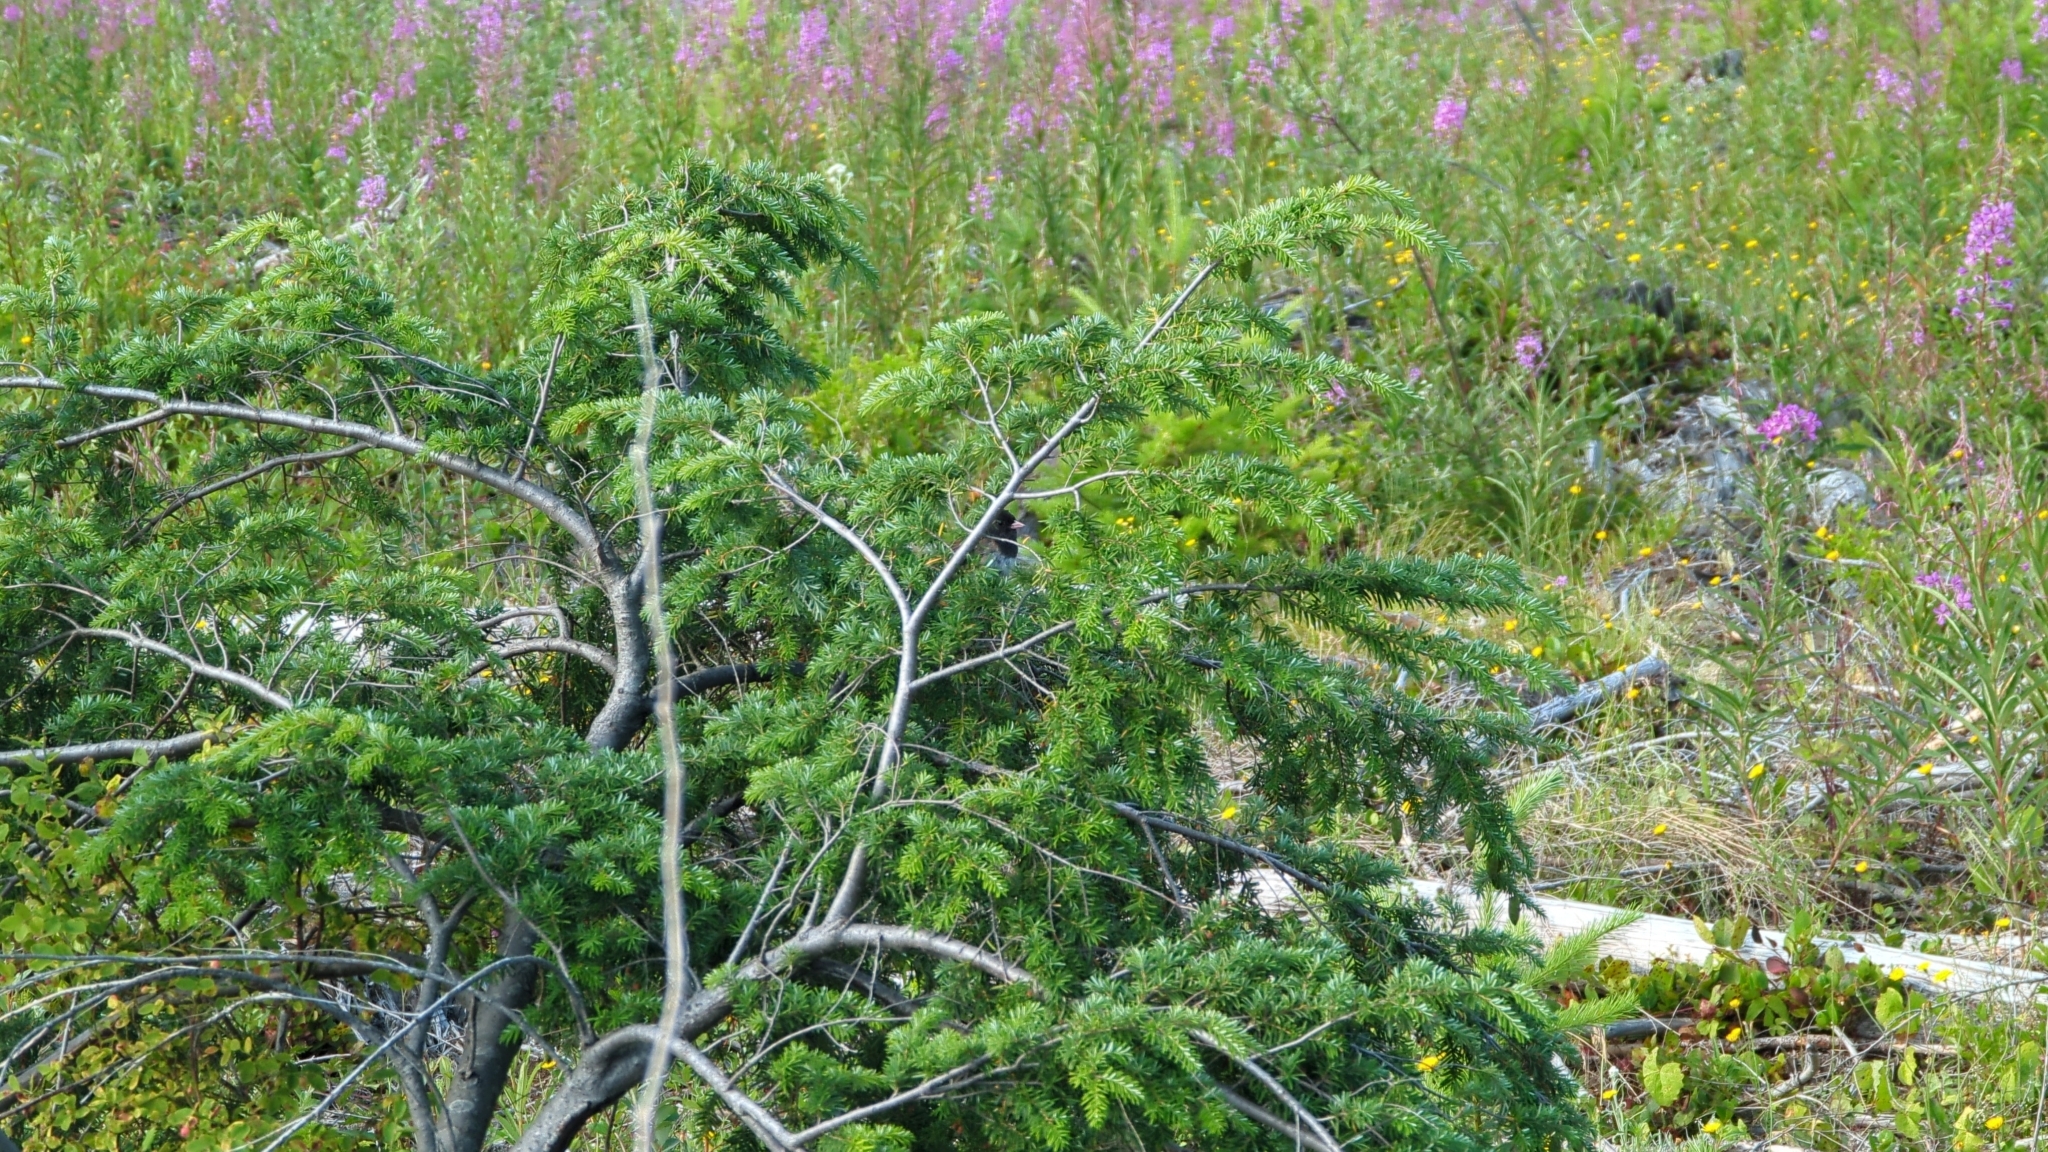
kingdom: Animalia
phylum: Chordata
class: Aves
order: Passeriformes
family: Passerellidae
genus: Junco
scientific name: Junco hyemalis
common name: Dark-eyed junco
